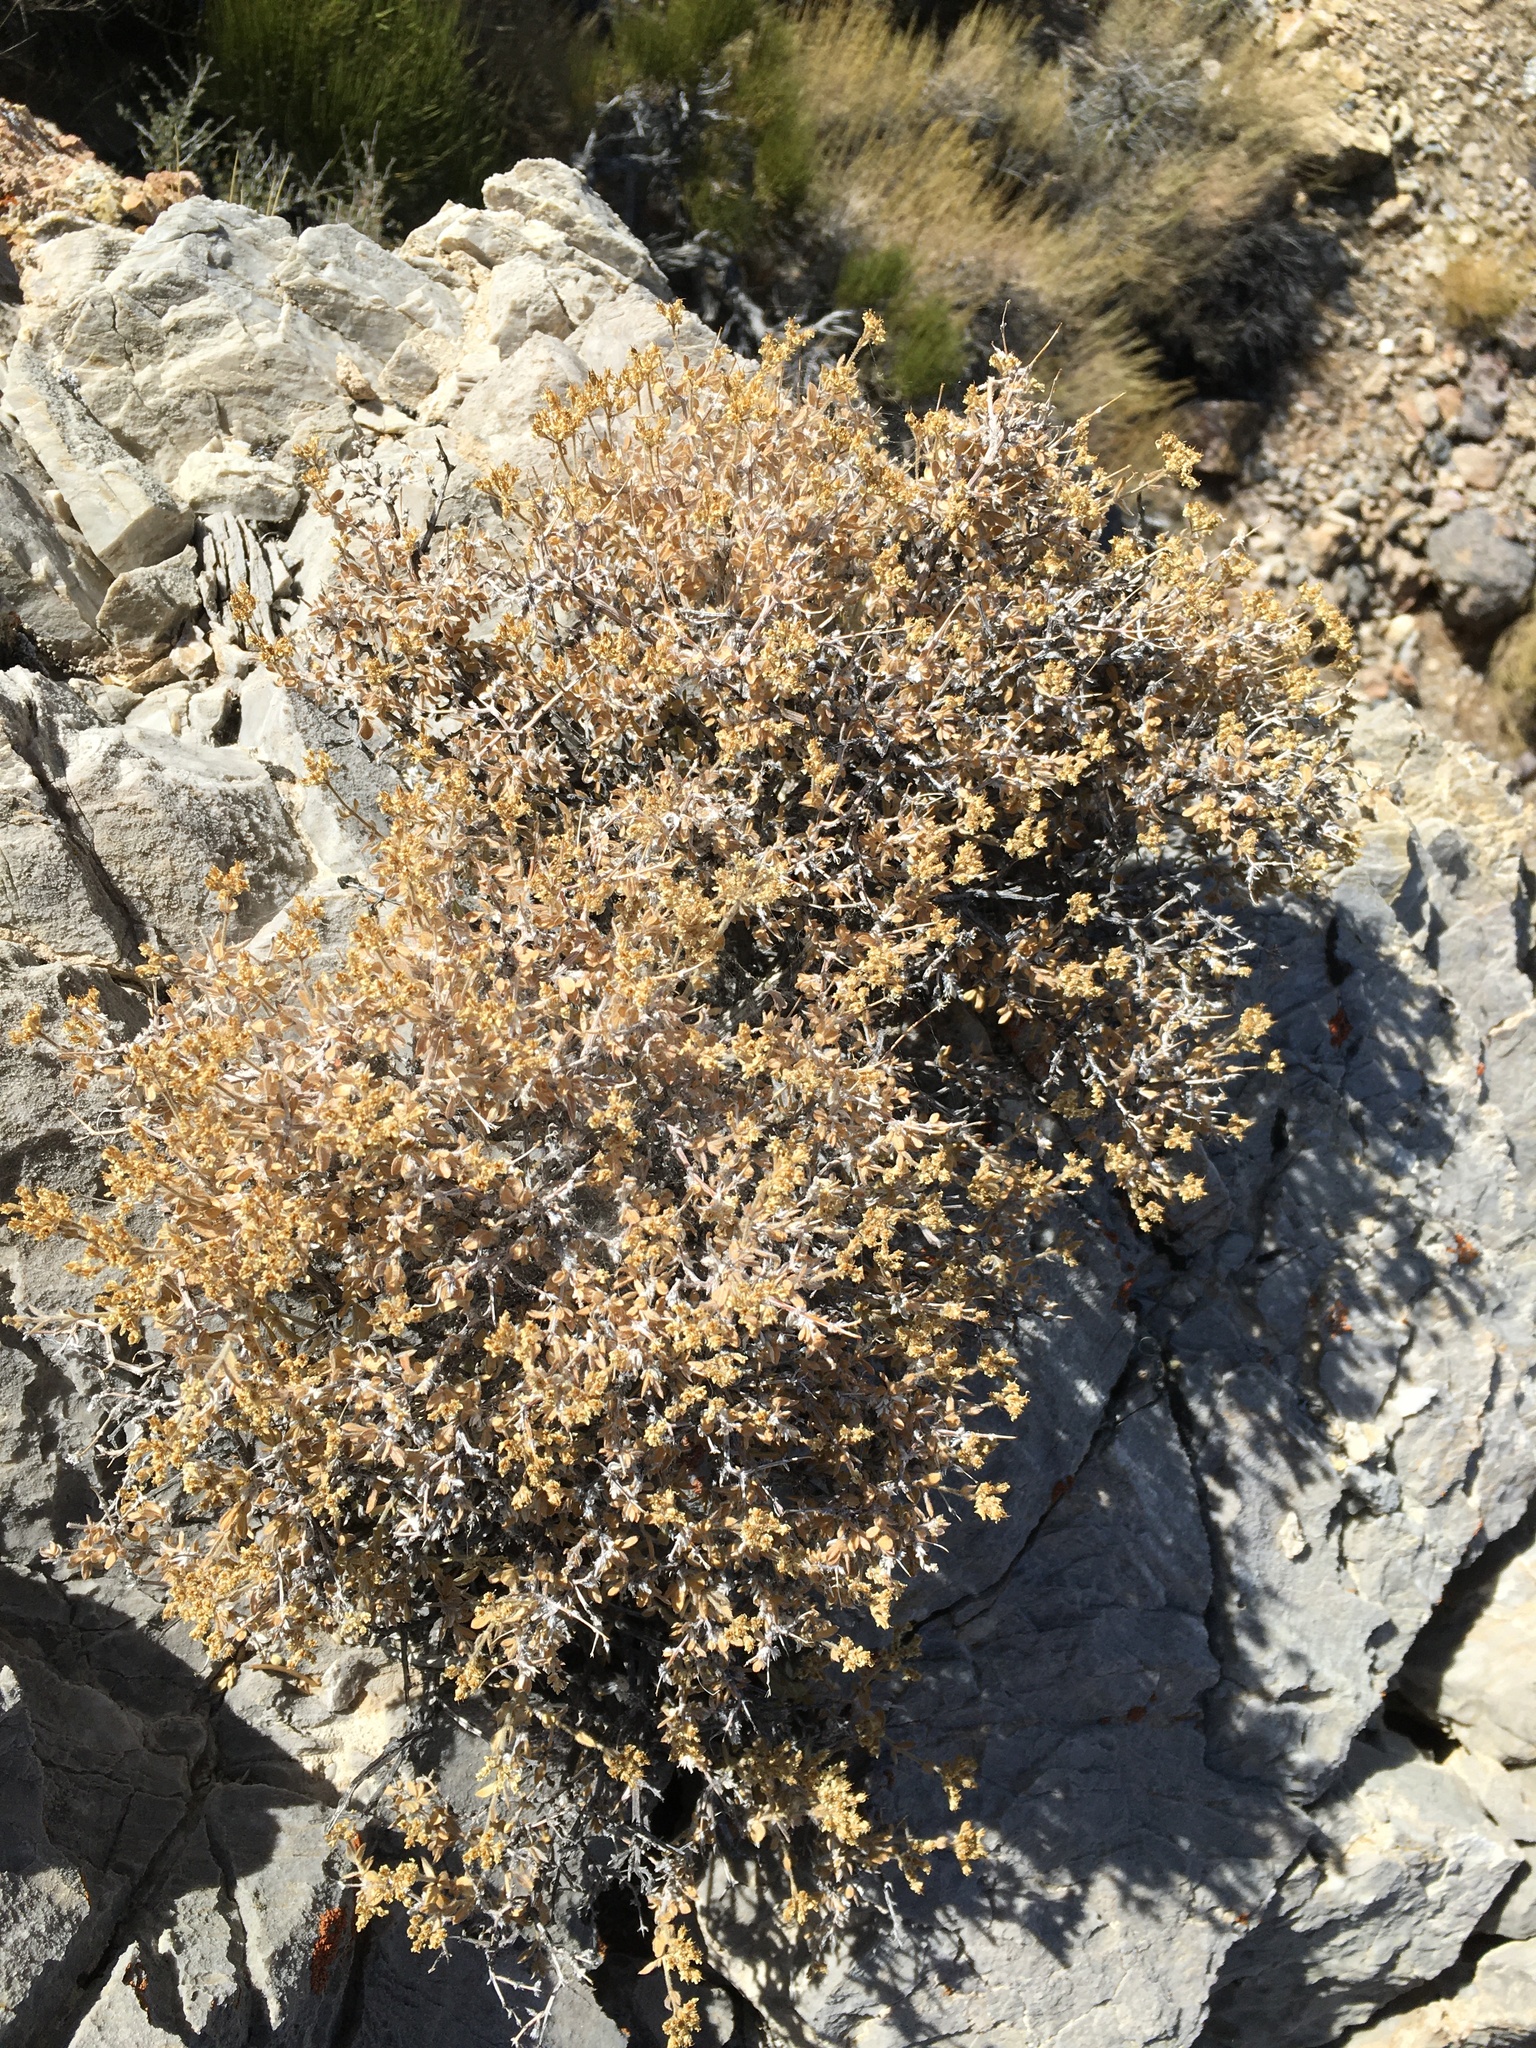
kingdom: Plantae
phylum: Tracheophyta
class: Magnoliopsida
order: Cornales
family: Hydrangeaceae
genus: Fendlerella
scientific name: Fendlerella utahensis
